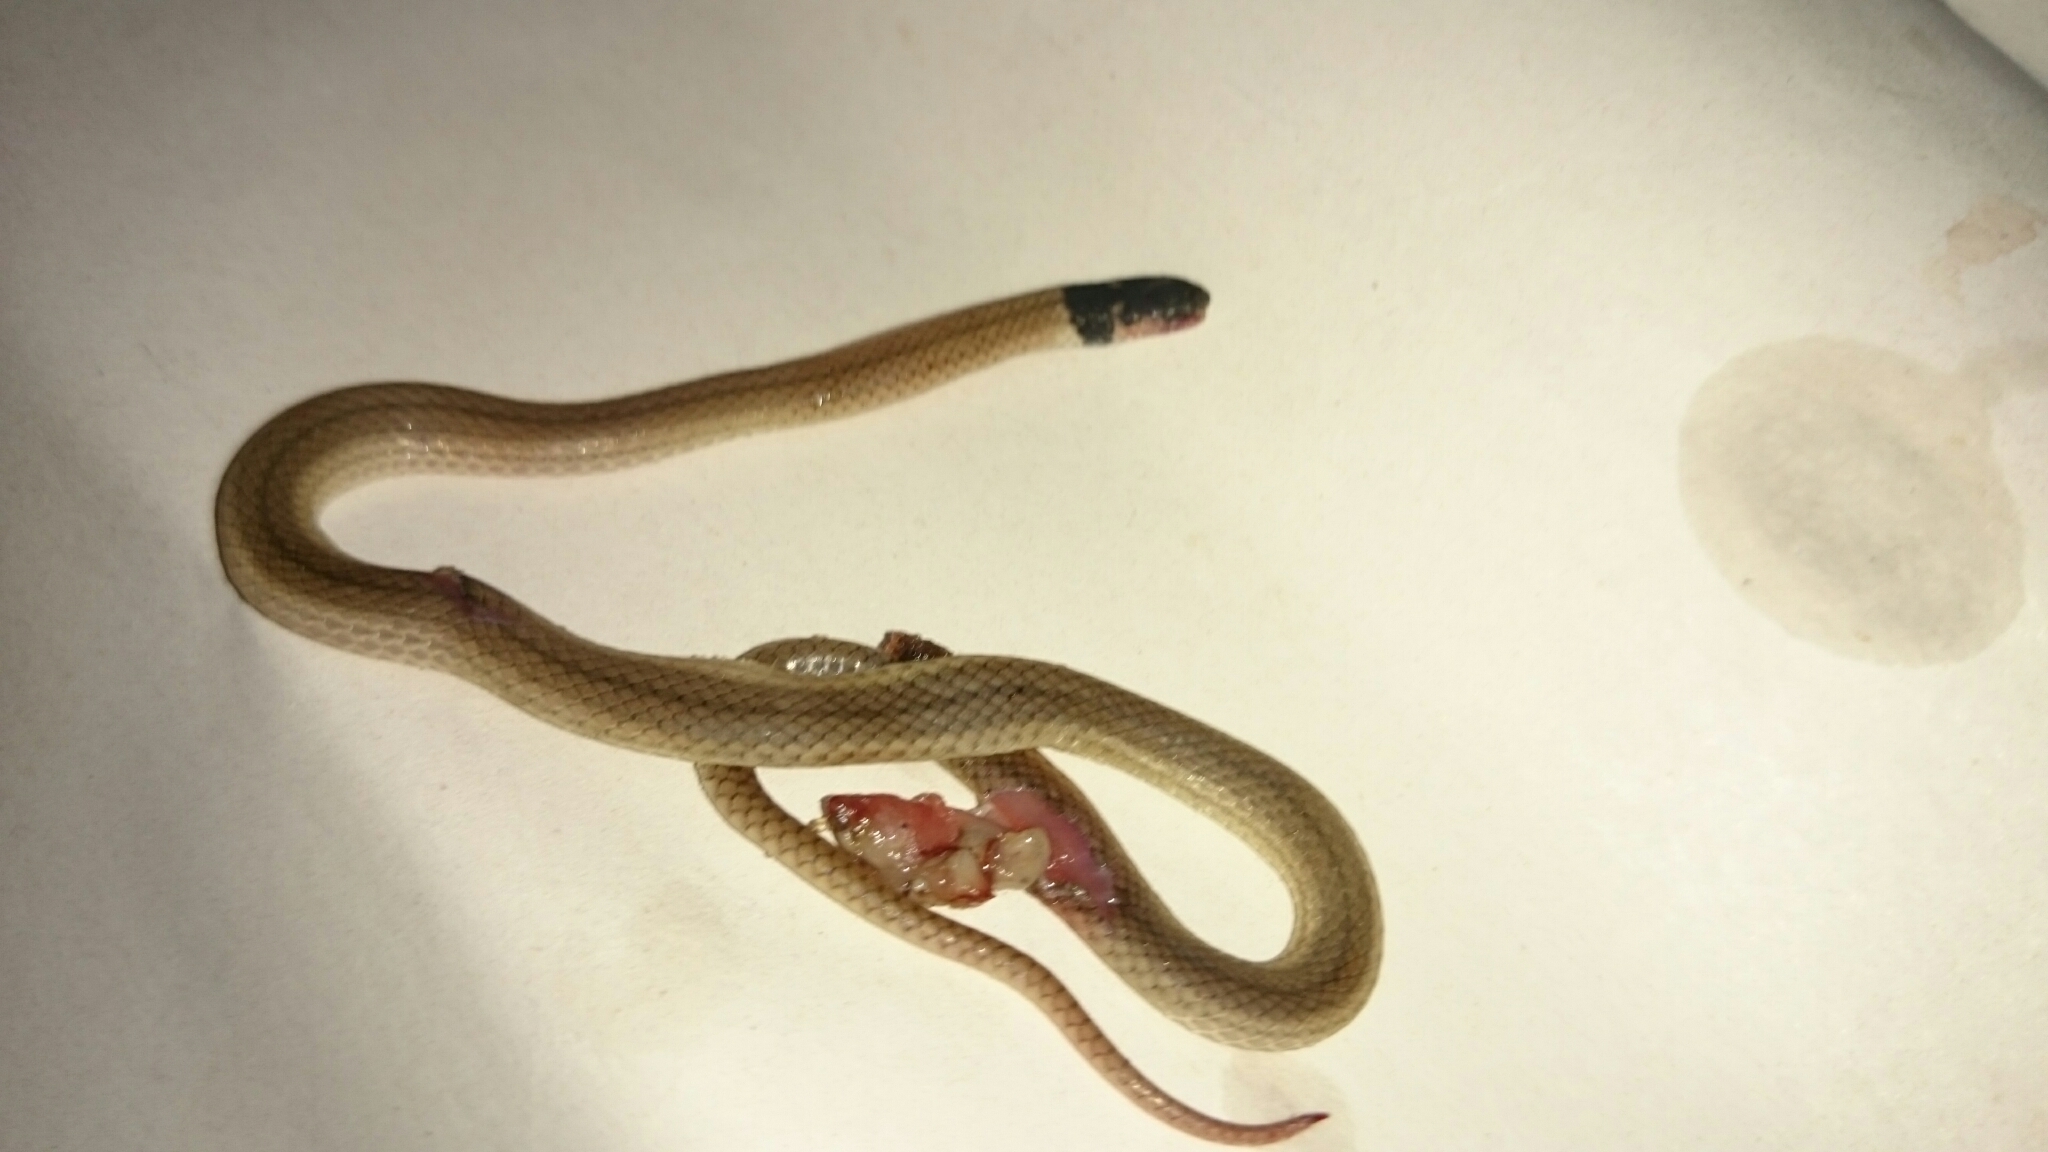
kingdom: Animalia
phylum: Chordata
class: Squamata
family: Atractaspididae
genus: Aparallactus
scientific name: Aparallactus capensis
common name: Cape centipede eater
